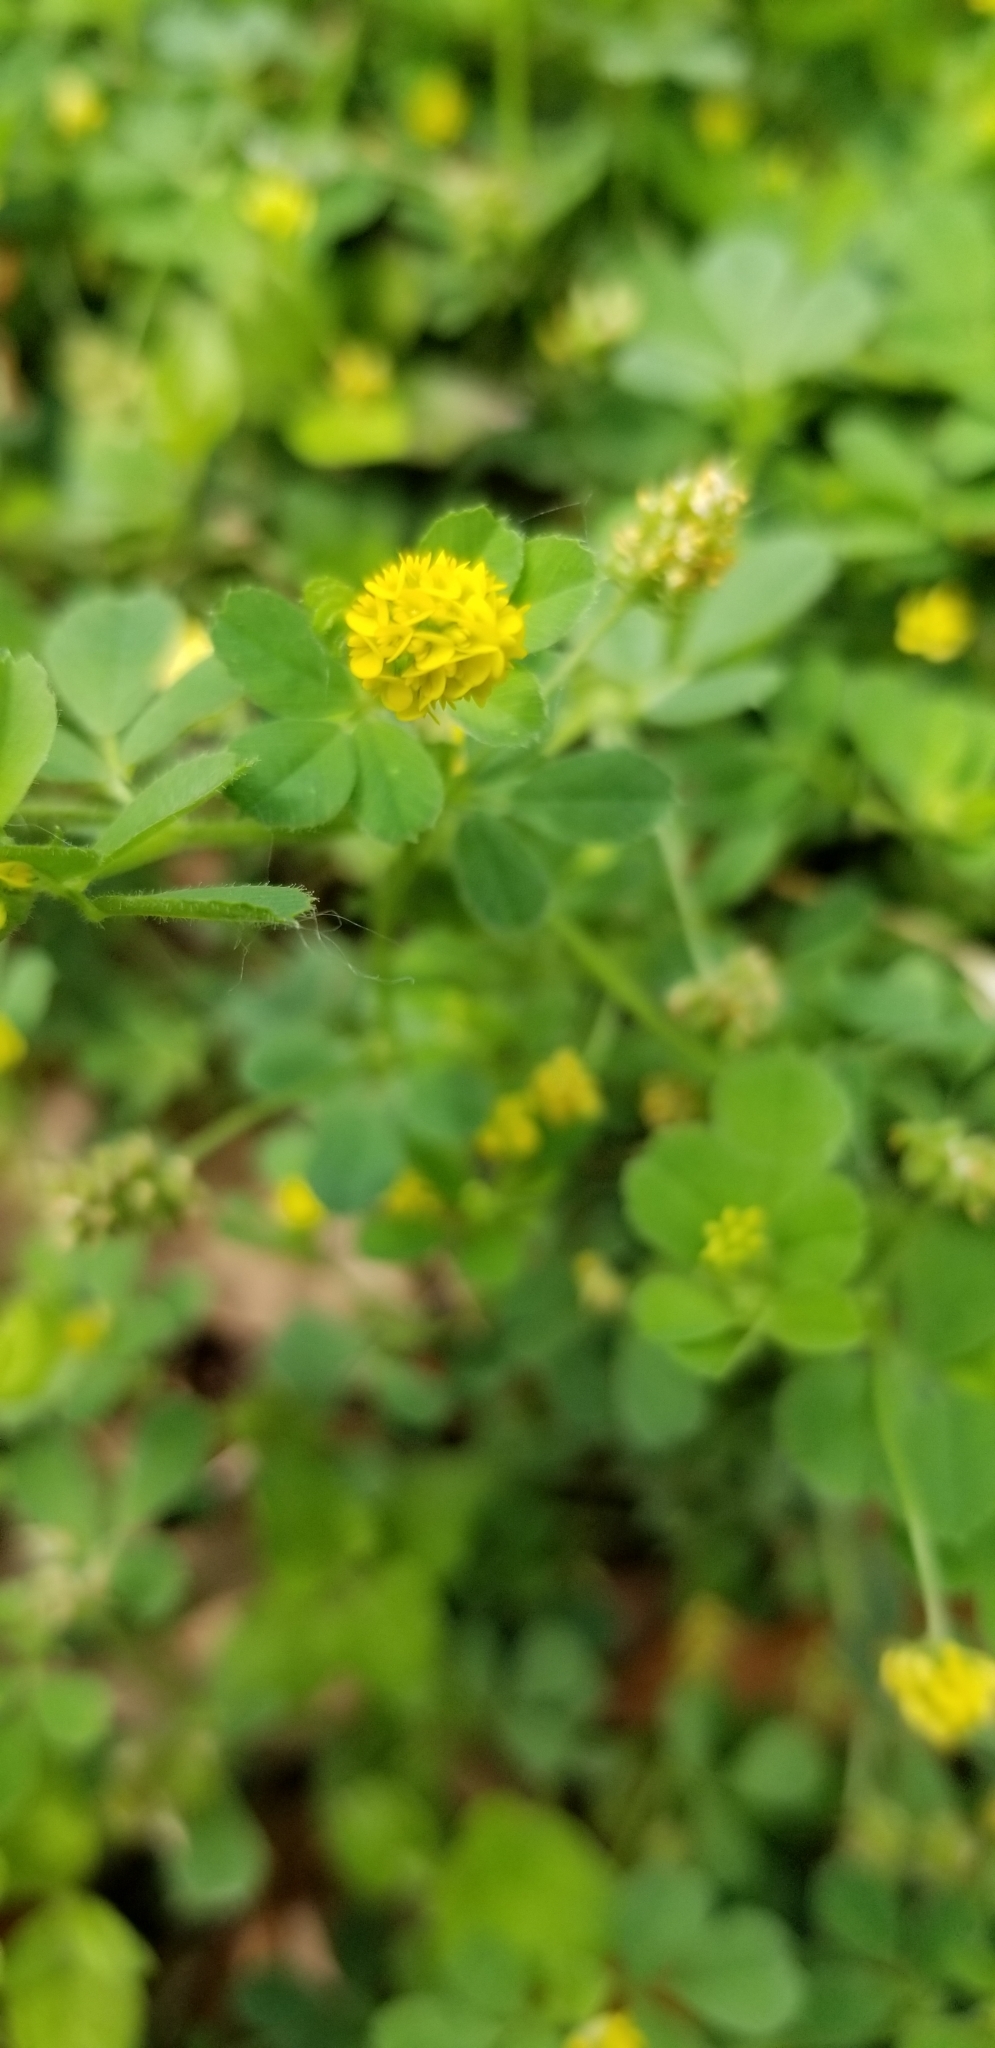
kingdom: Plantae
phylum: Tracheophyta
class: Magnoliopsida
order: Fabales
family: Fabaceae
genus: Medicago
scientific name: Medicago lupulina
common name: Black medick
